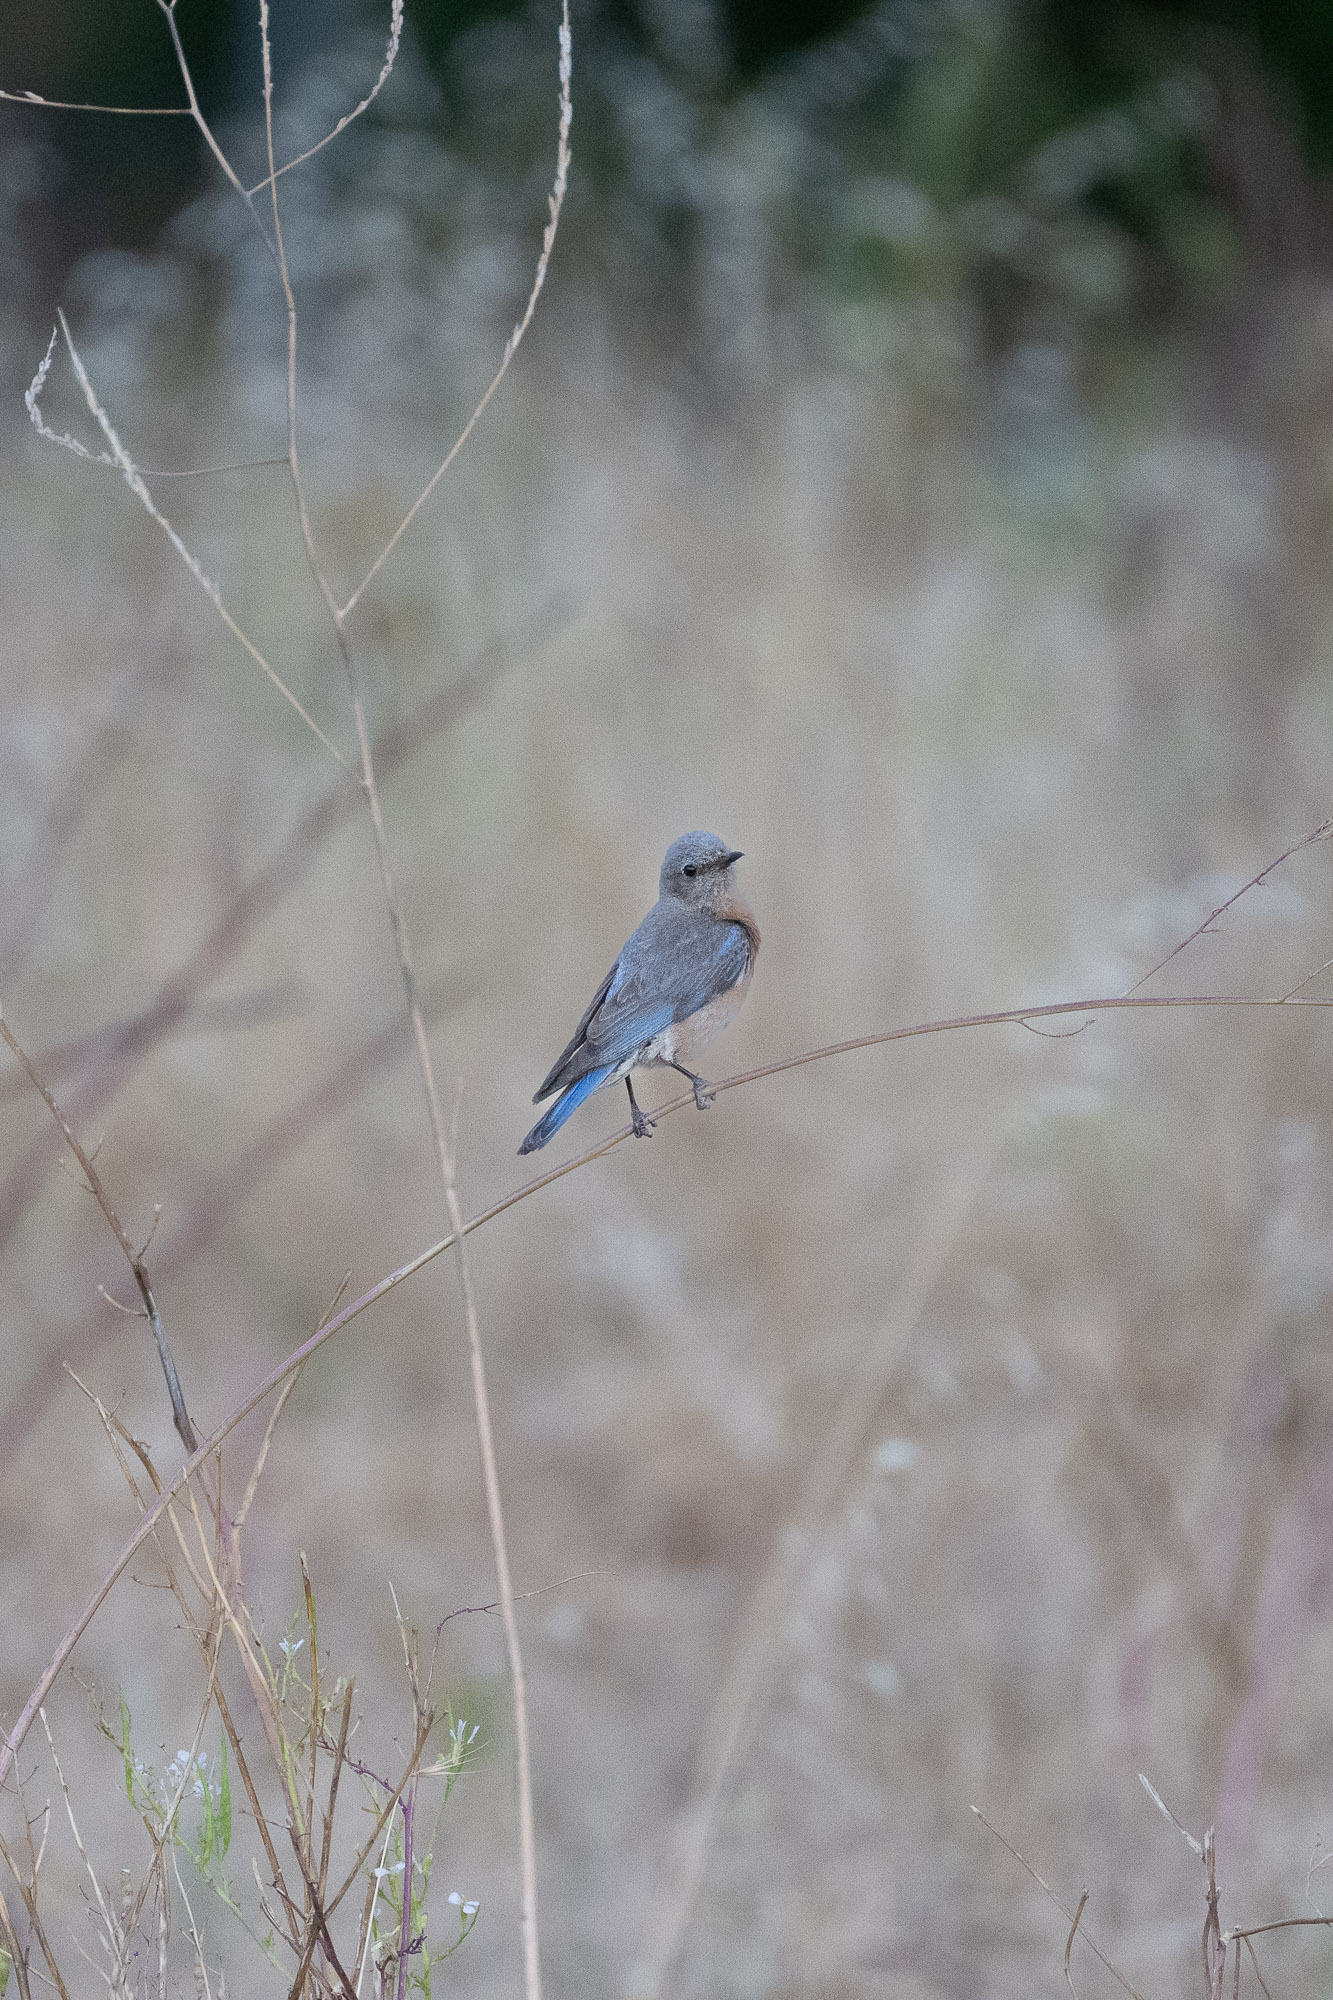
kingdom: Animalia
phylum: Chordata
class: Aves
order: Passeriformes
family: Turdidae
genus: Sialia
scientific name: Sialia mexicana
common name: Western bluebird
